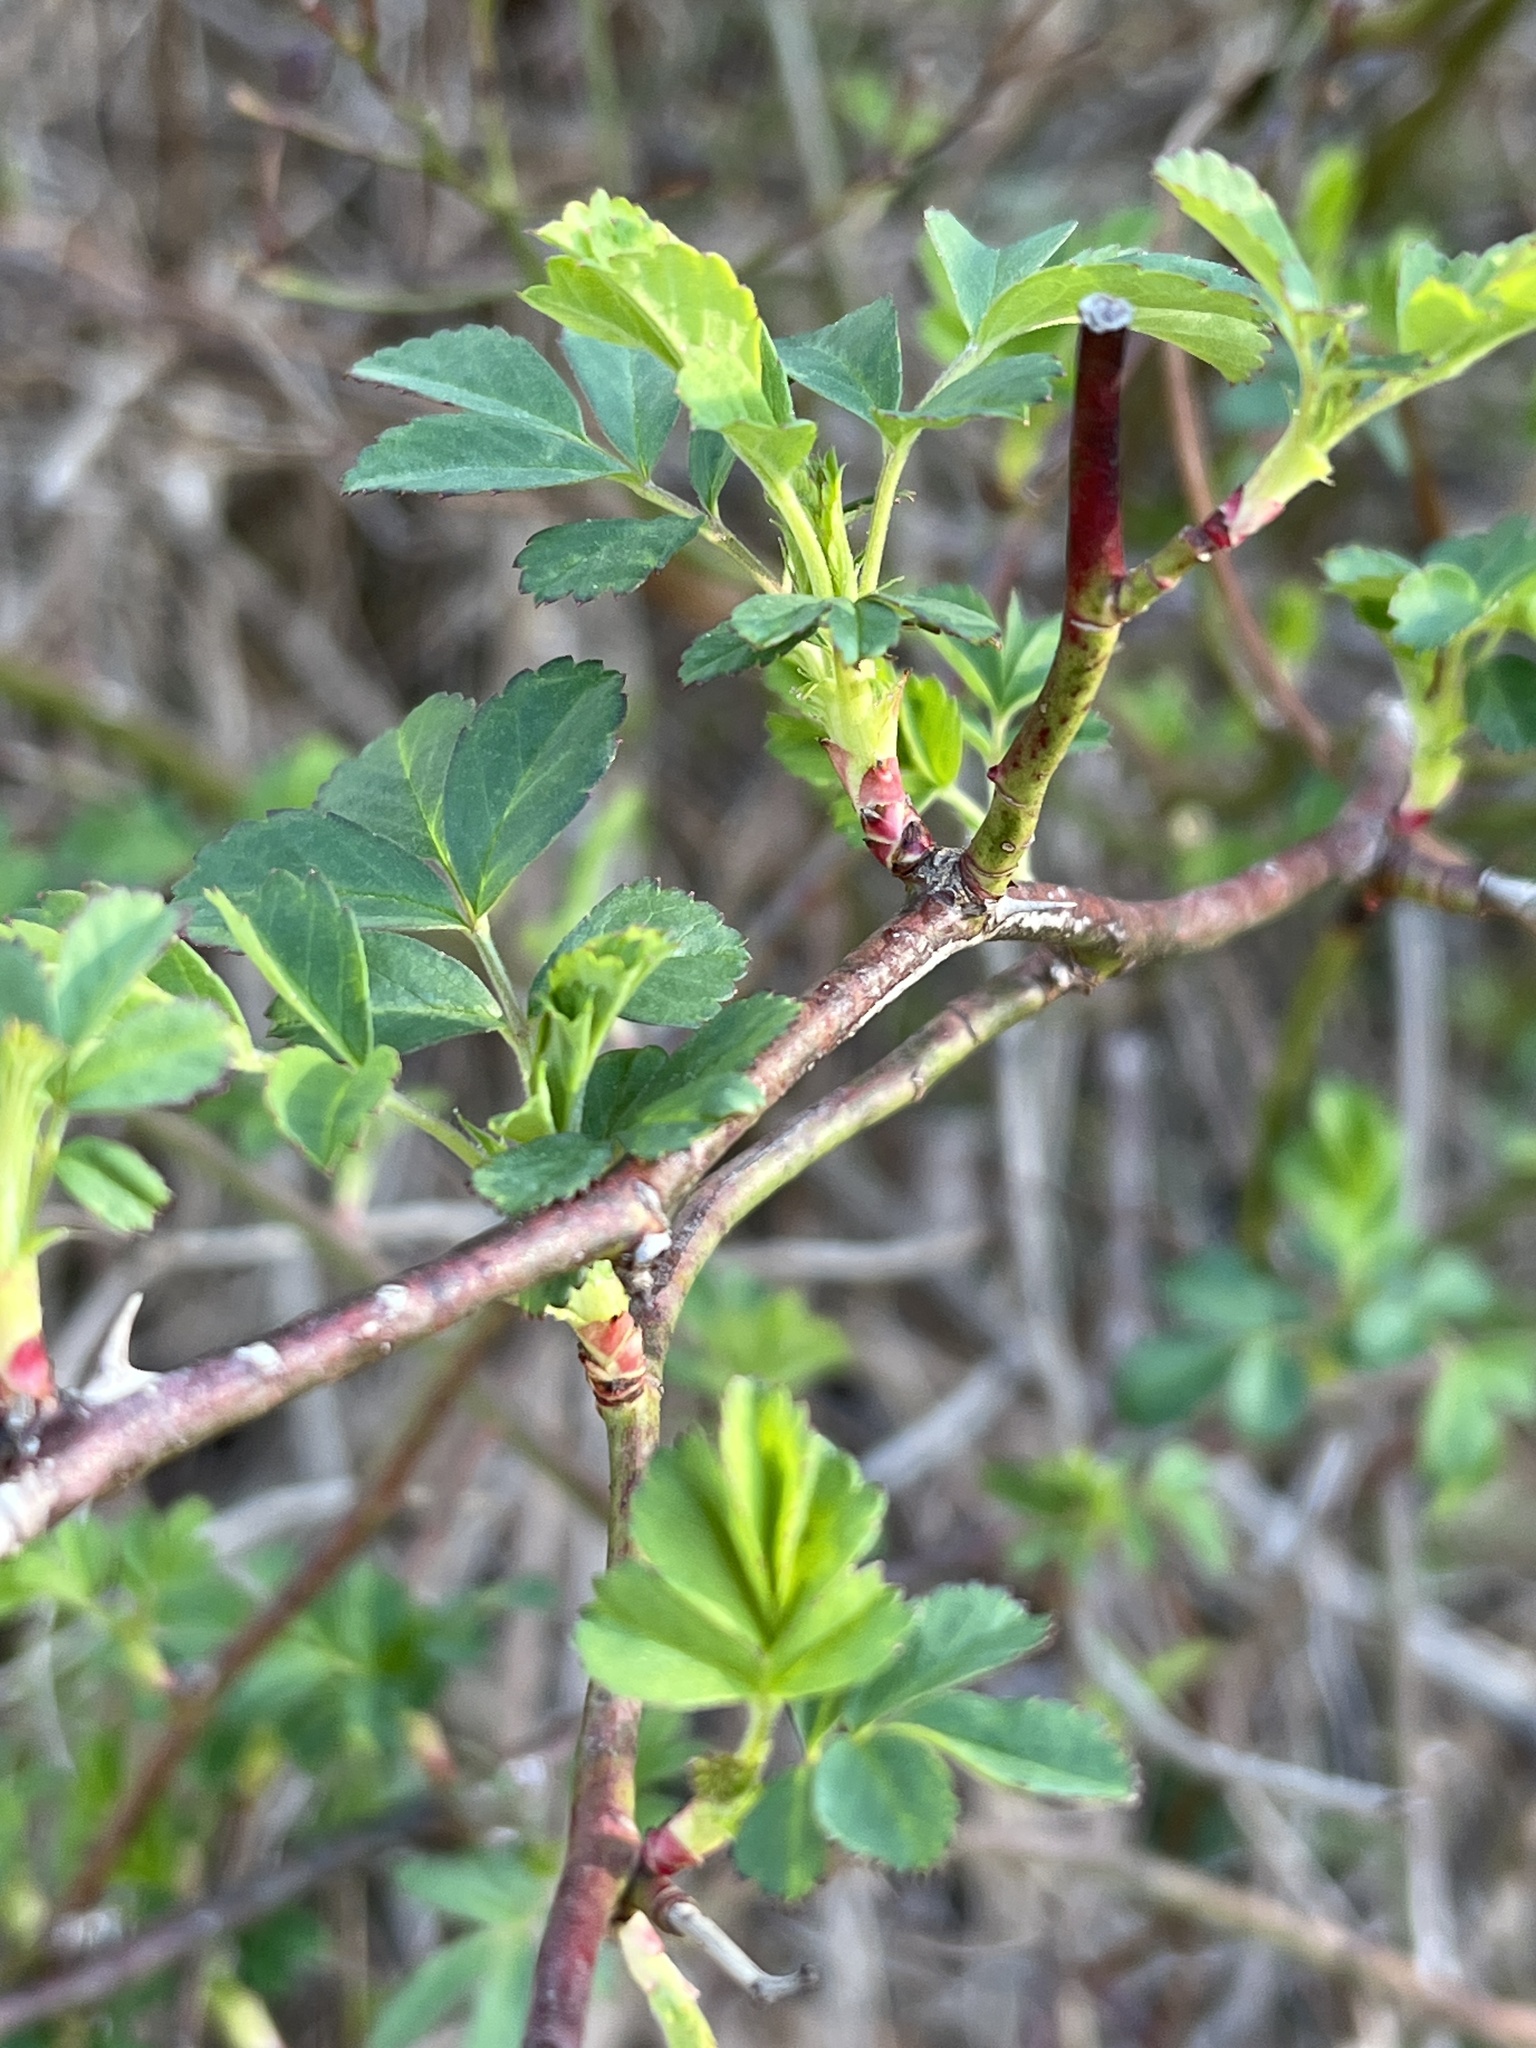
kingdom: Plantae
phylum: Tracheophyta
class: Magnoliopsida
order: Rosales
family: Rosaceae
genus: Rosa
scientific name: Rosa multiflora
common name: Multiflora rose
